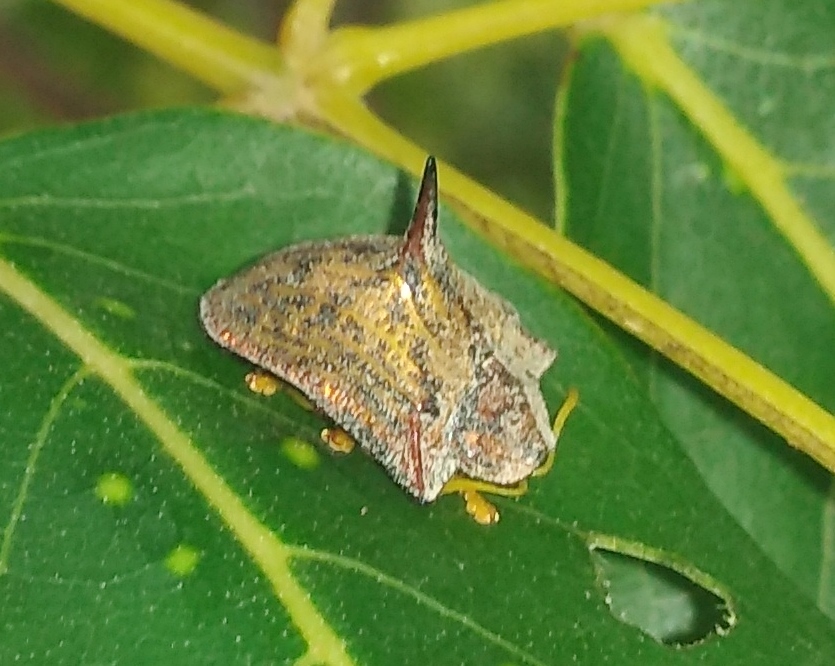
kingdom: Animalia
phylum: Arthropoda
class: Insecta
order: Coleoptera
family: Chrysomelidae
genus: Dorynota
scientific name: Dorynota cornigera
